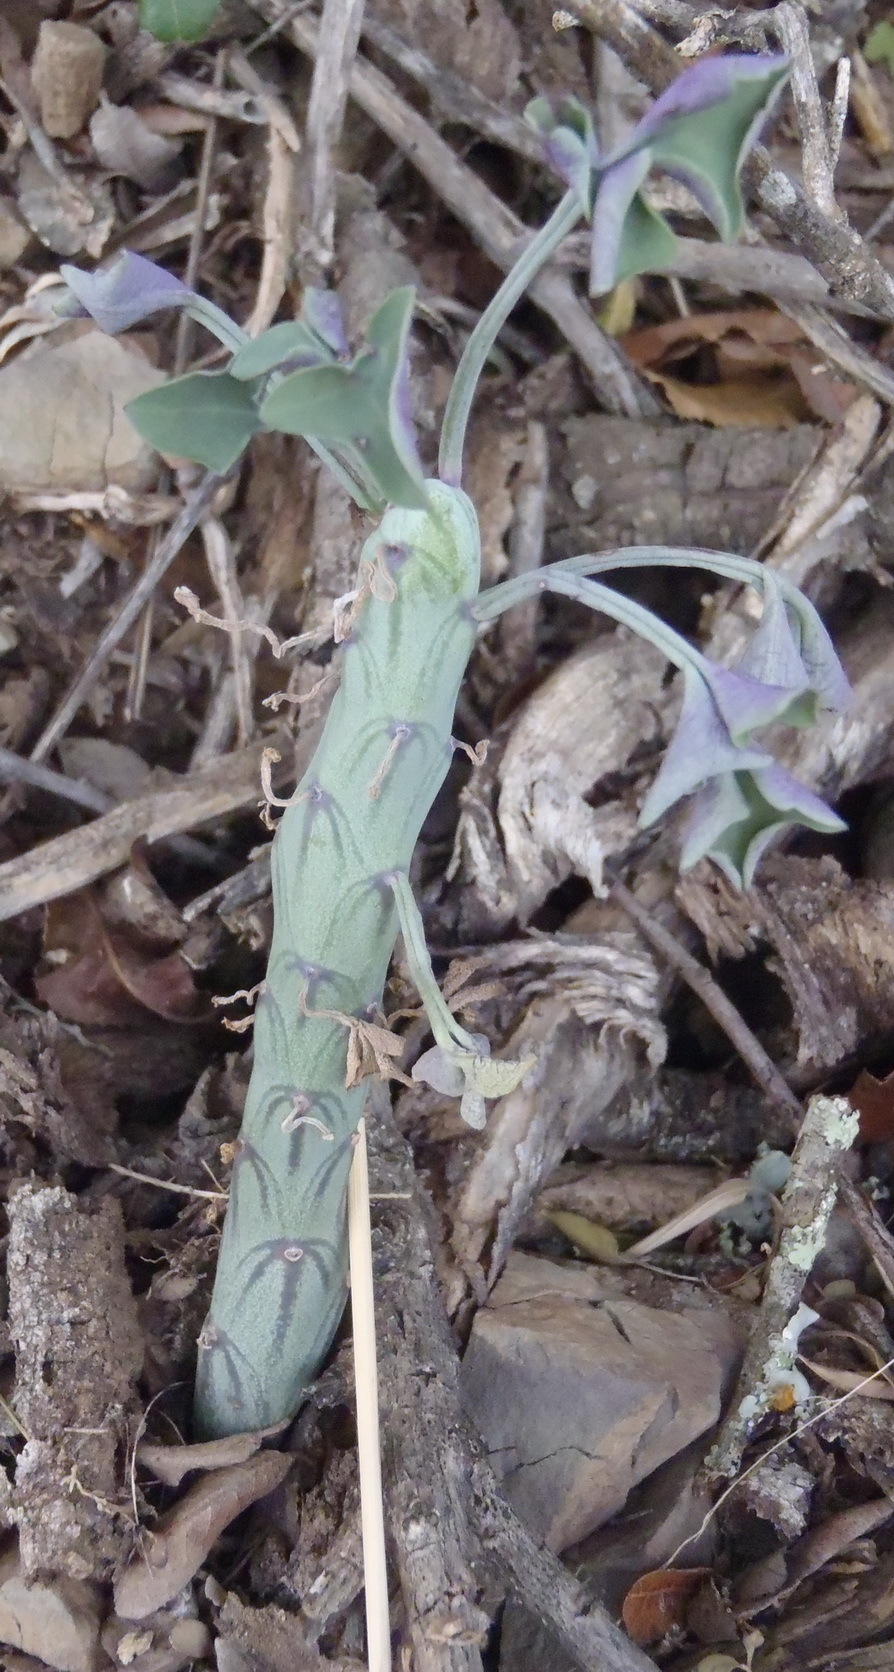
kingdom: Plantae
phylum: Tracheophyta
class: Magnoliopsida
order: Asterales
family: Asteraceae
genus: Curio
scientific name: Curio articulatus
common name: Candleplant
